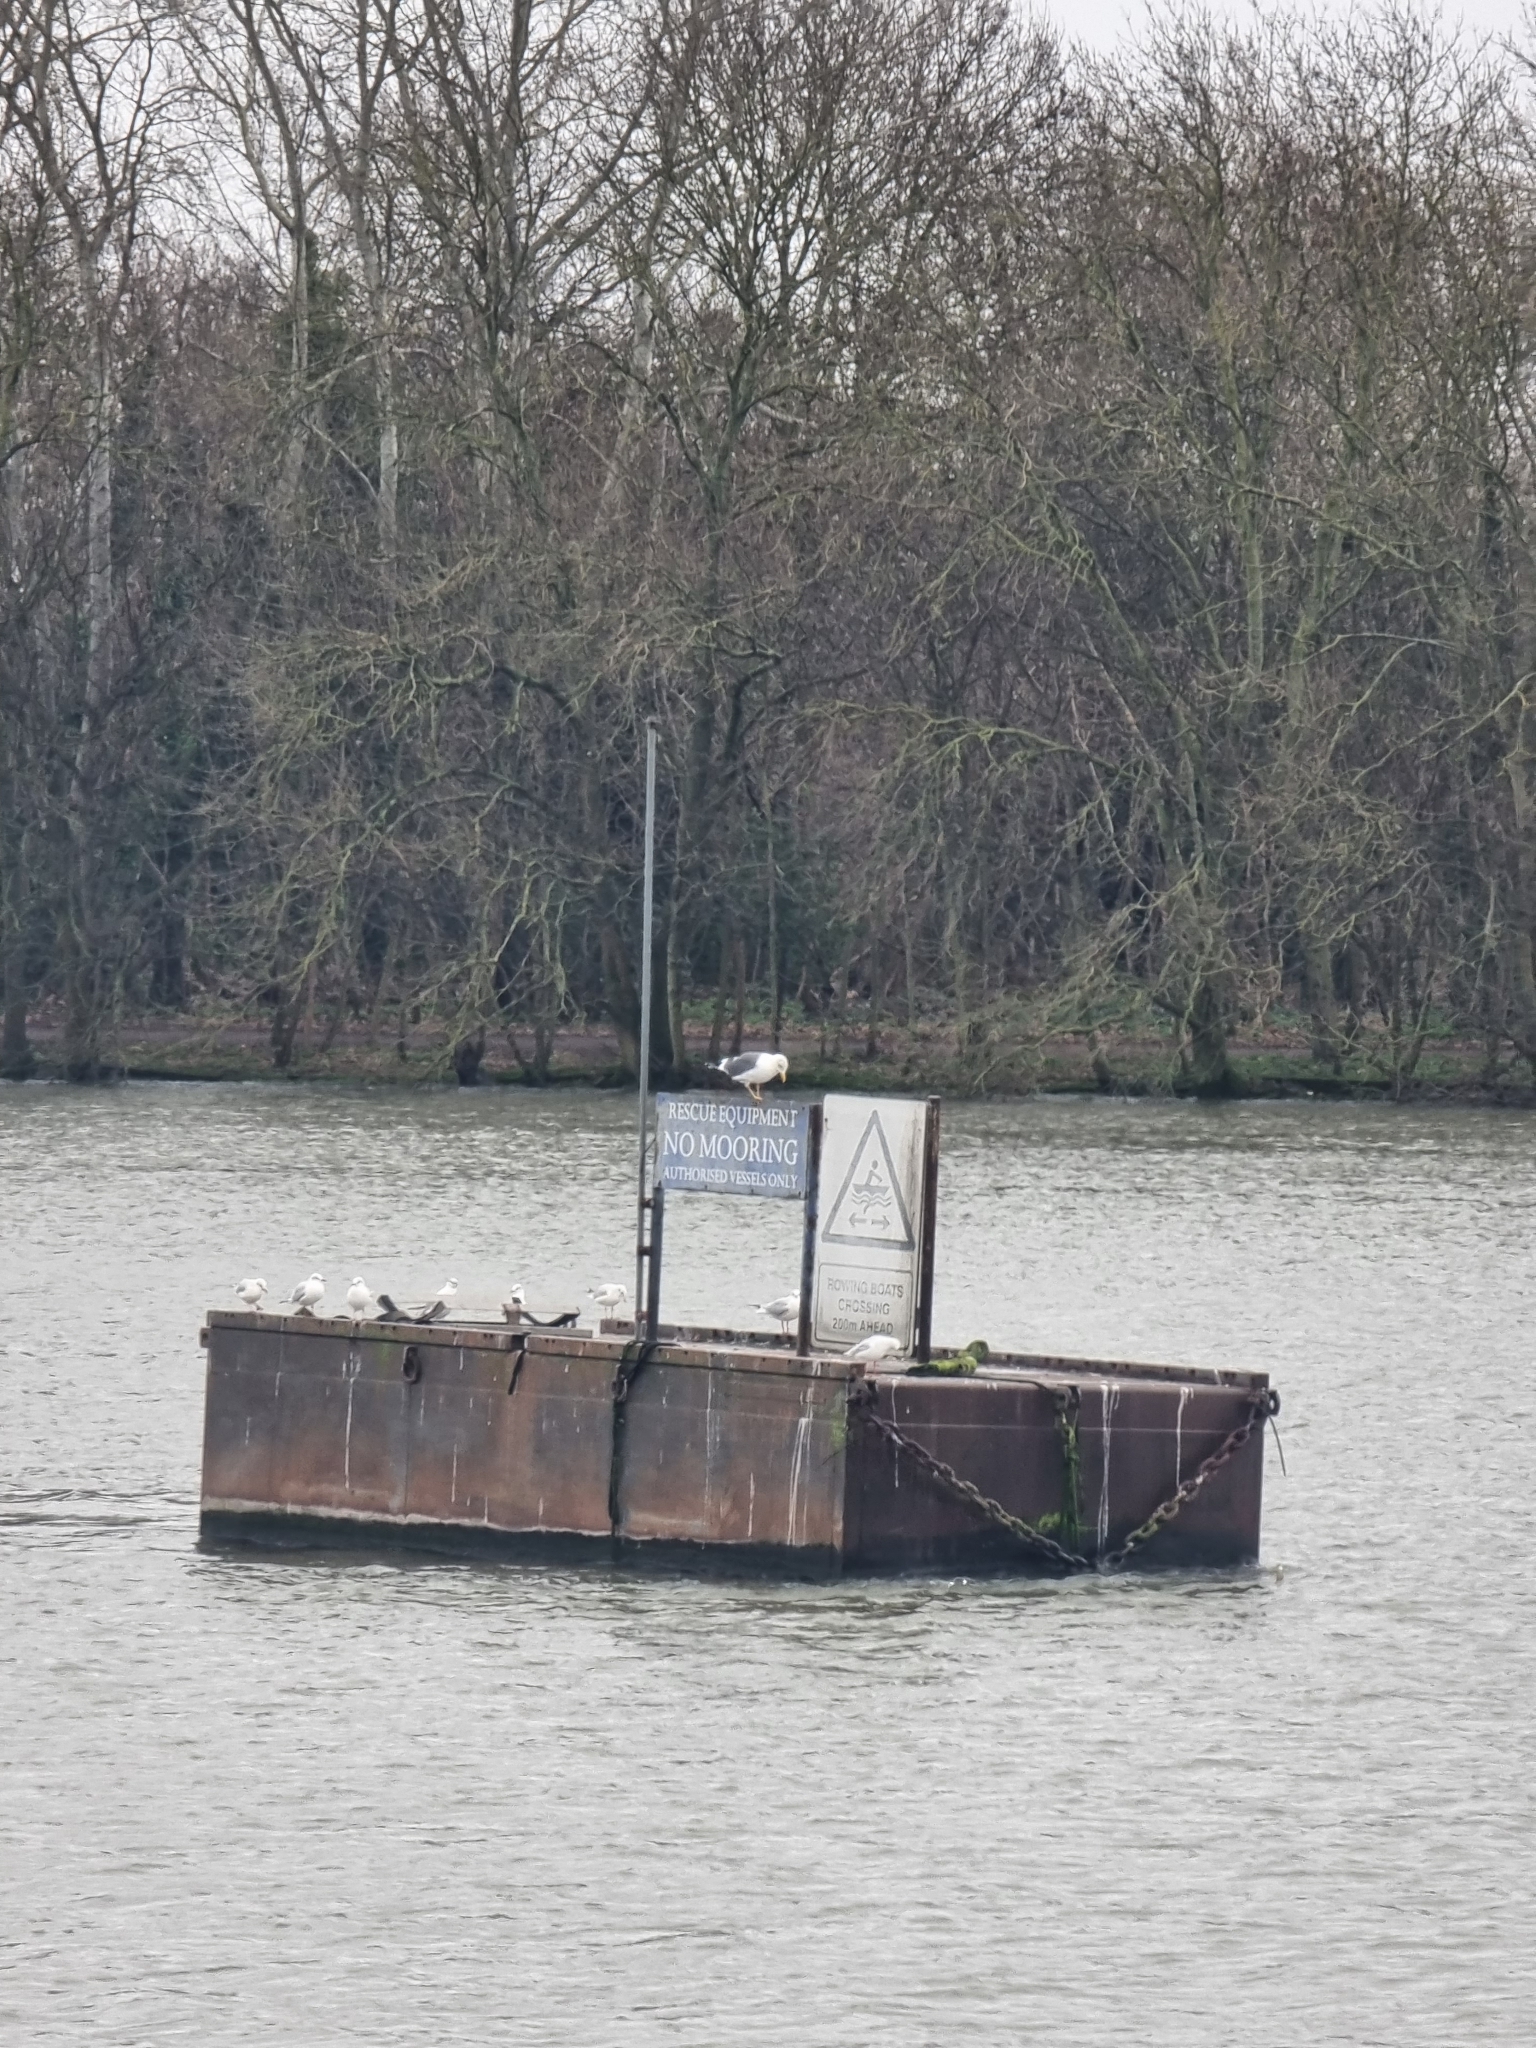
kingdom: Animalia
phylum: Chordata
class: Aves
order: Charadriiformes
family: Laridae
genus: Larus
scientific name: Larus fuscus
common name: Lesser black-backed gull
